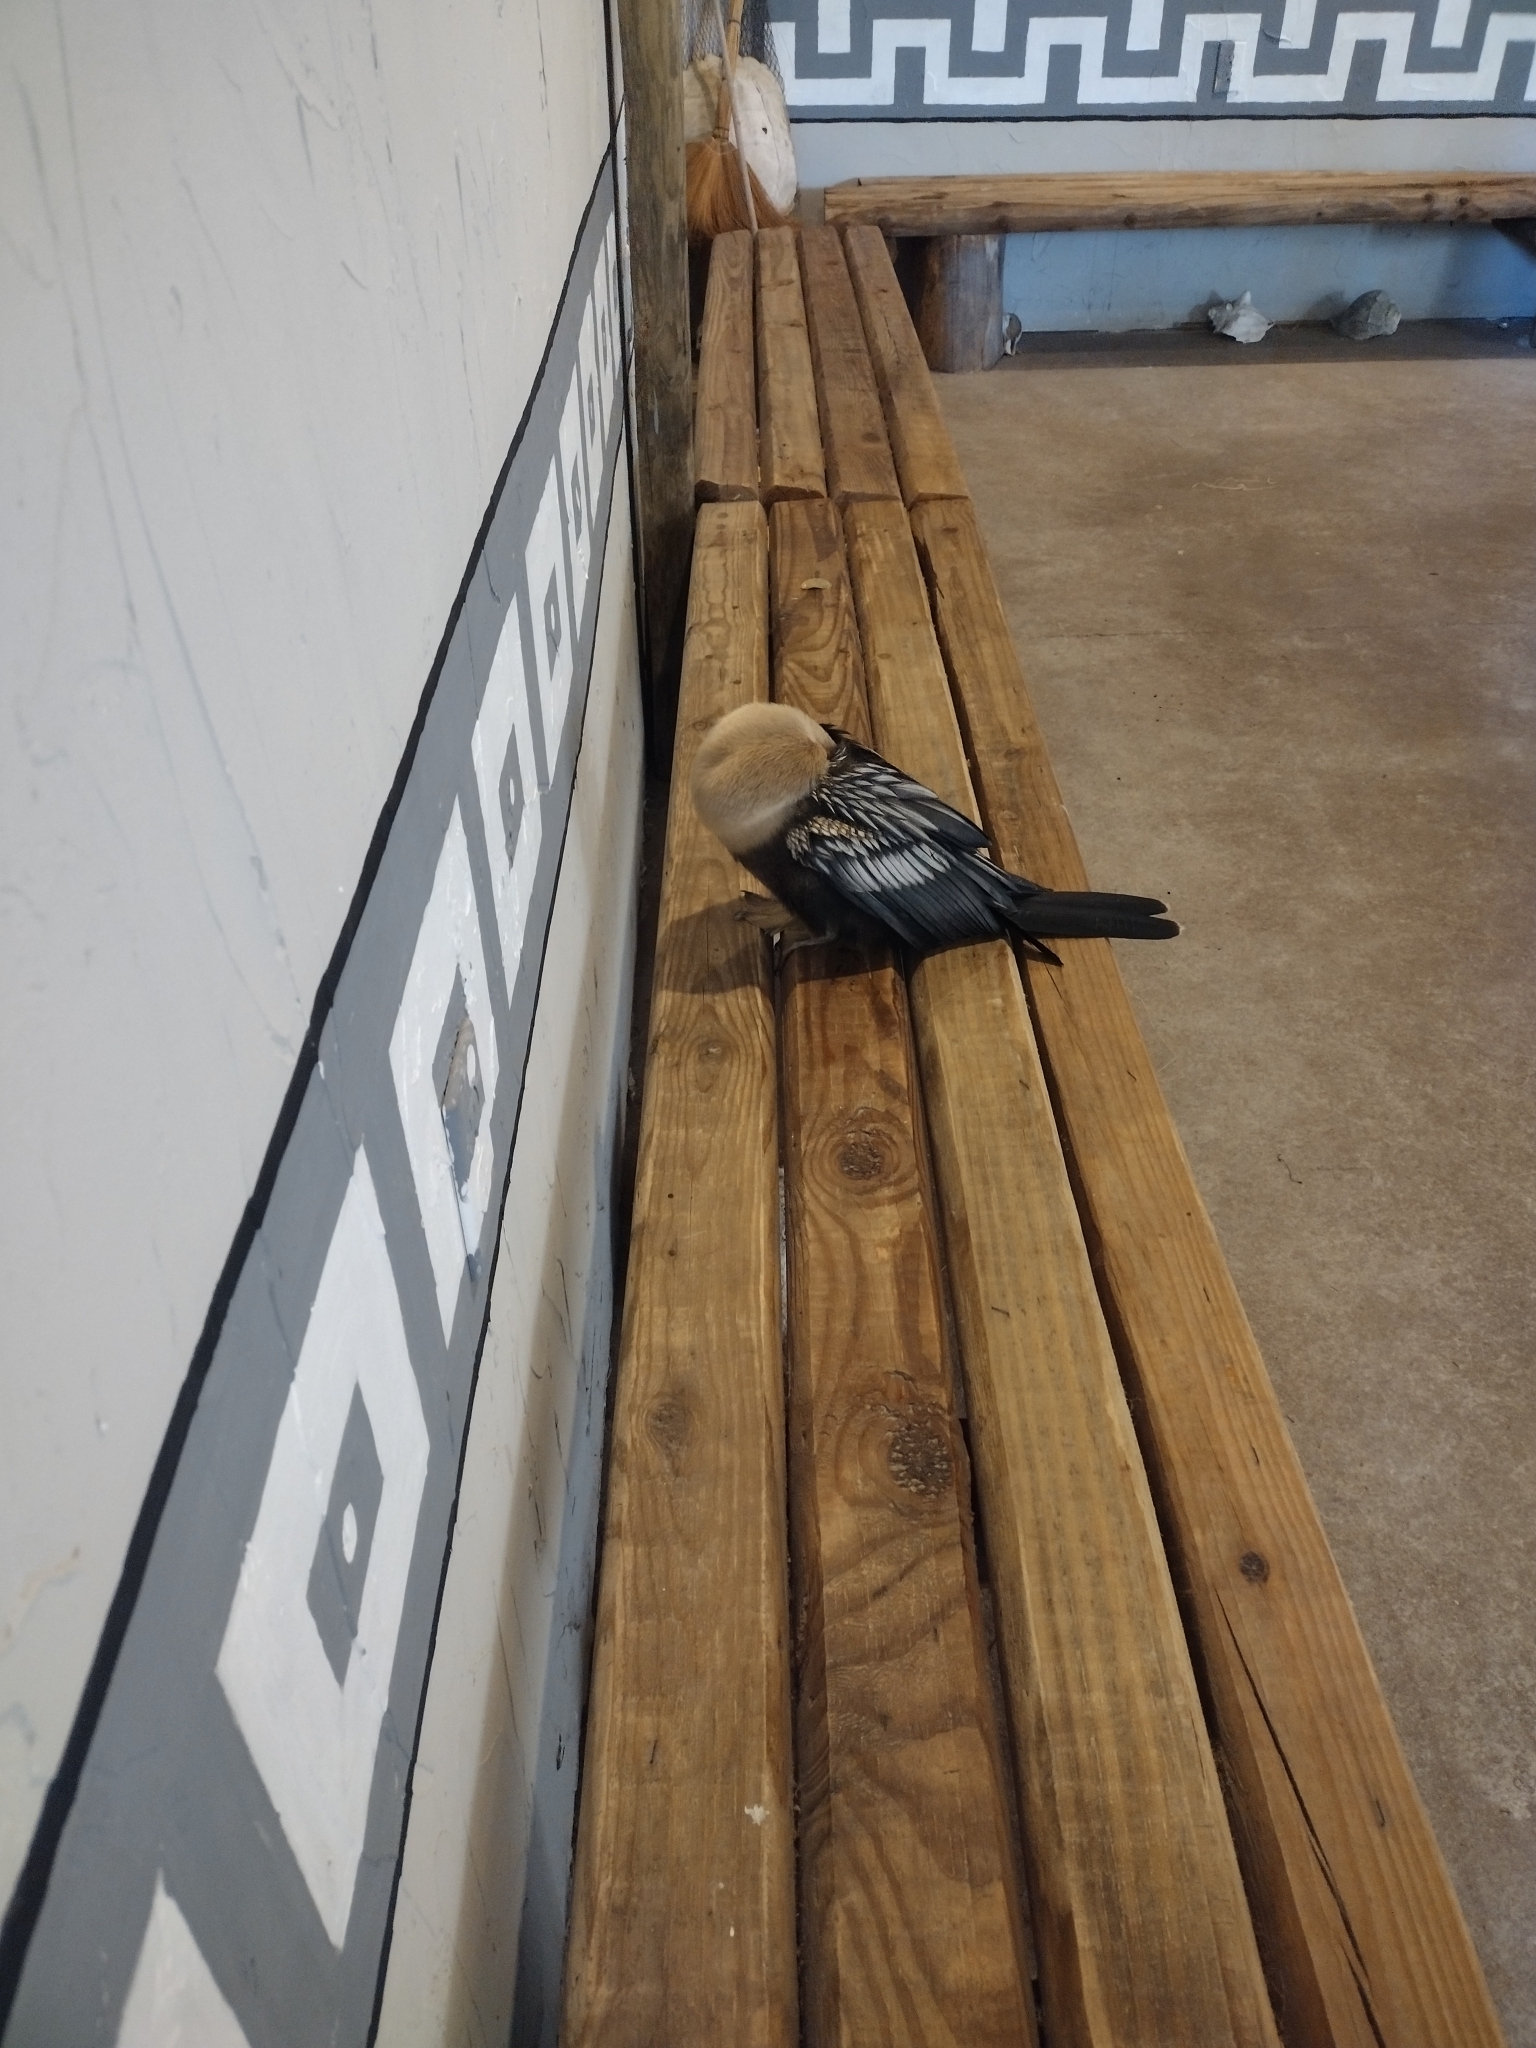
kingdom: Animalia
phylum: Chordata
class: Aves
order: Suliformes
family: Anhingidae
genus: Anhinga
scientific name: Anhinga anhinga
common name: Anhinga
